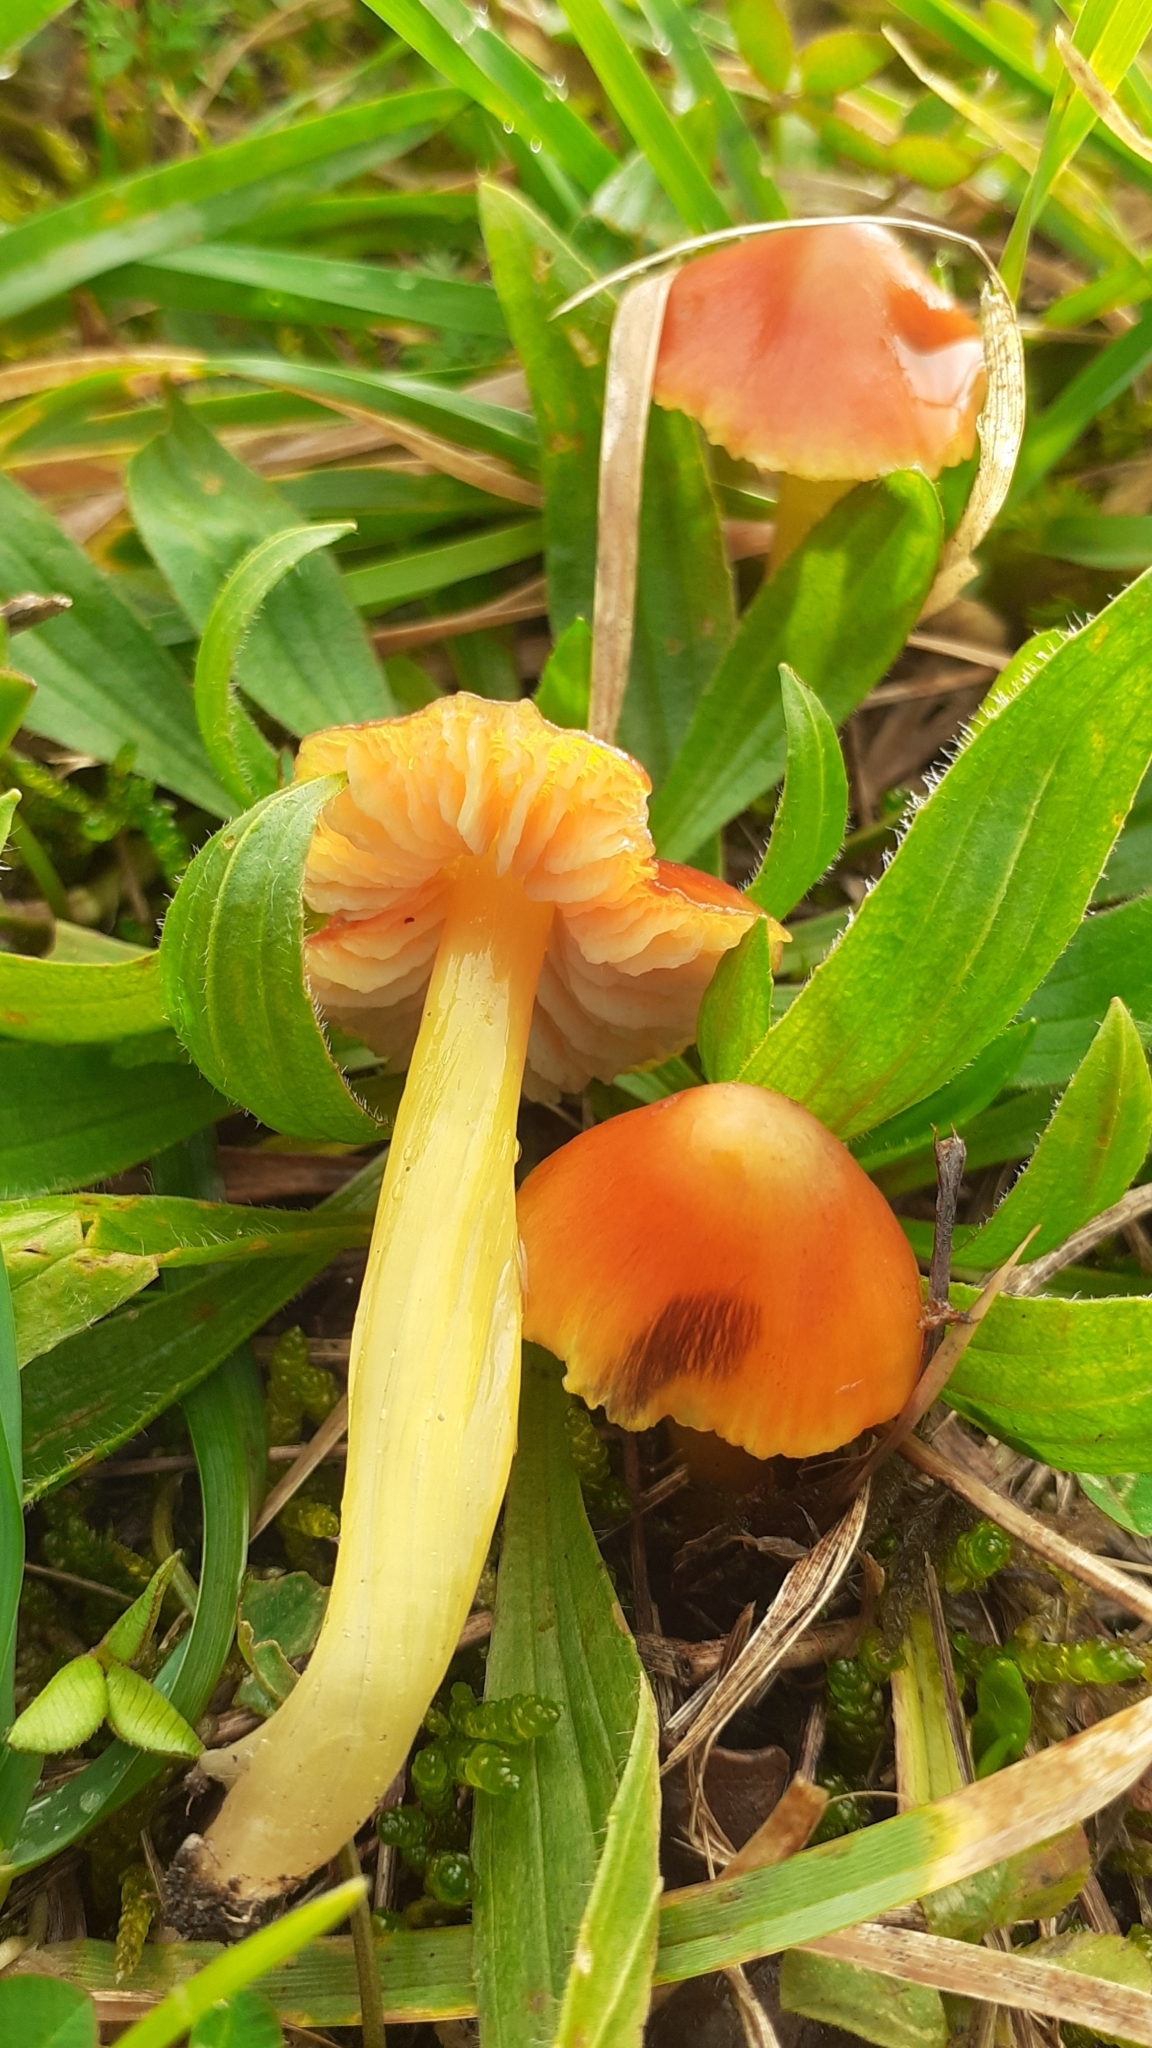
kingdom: Fungi
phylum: Basidiomycota
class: Agaricomycetes
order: Agaricales
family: Hygrophoraceae
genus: Hygrocybe
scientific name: Hygrocybe conica
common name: Blackening wax-cap
